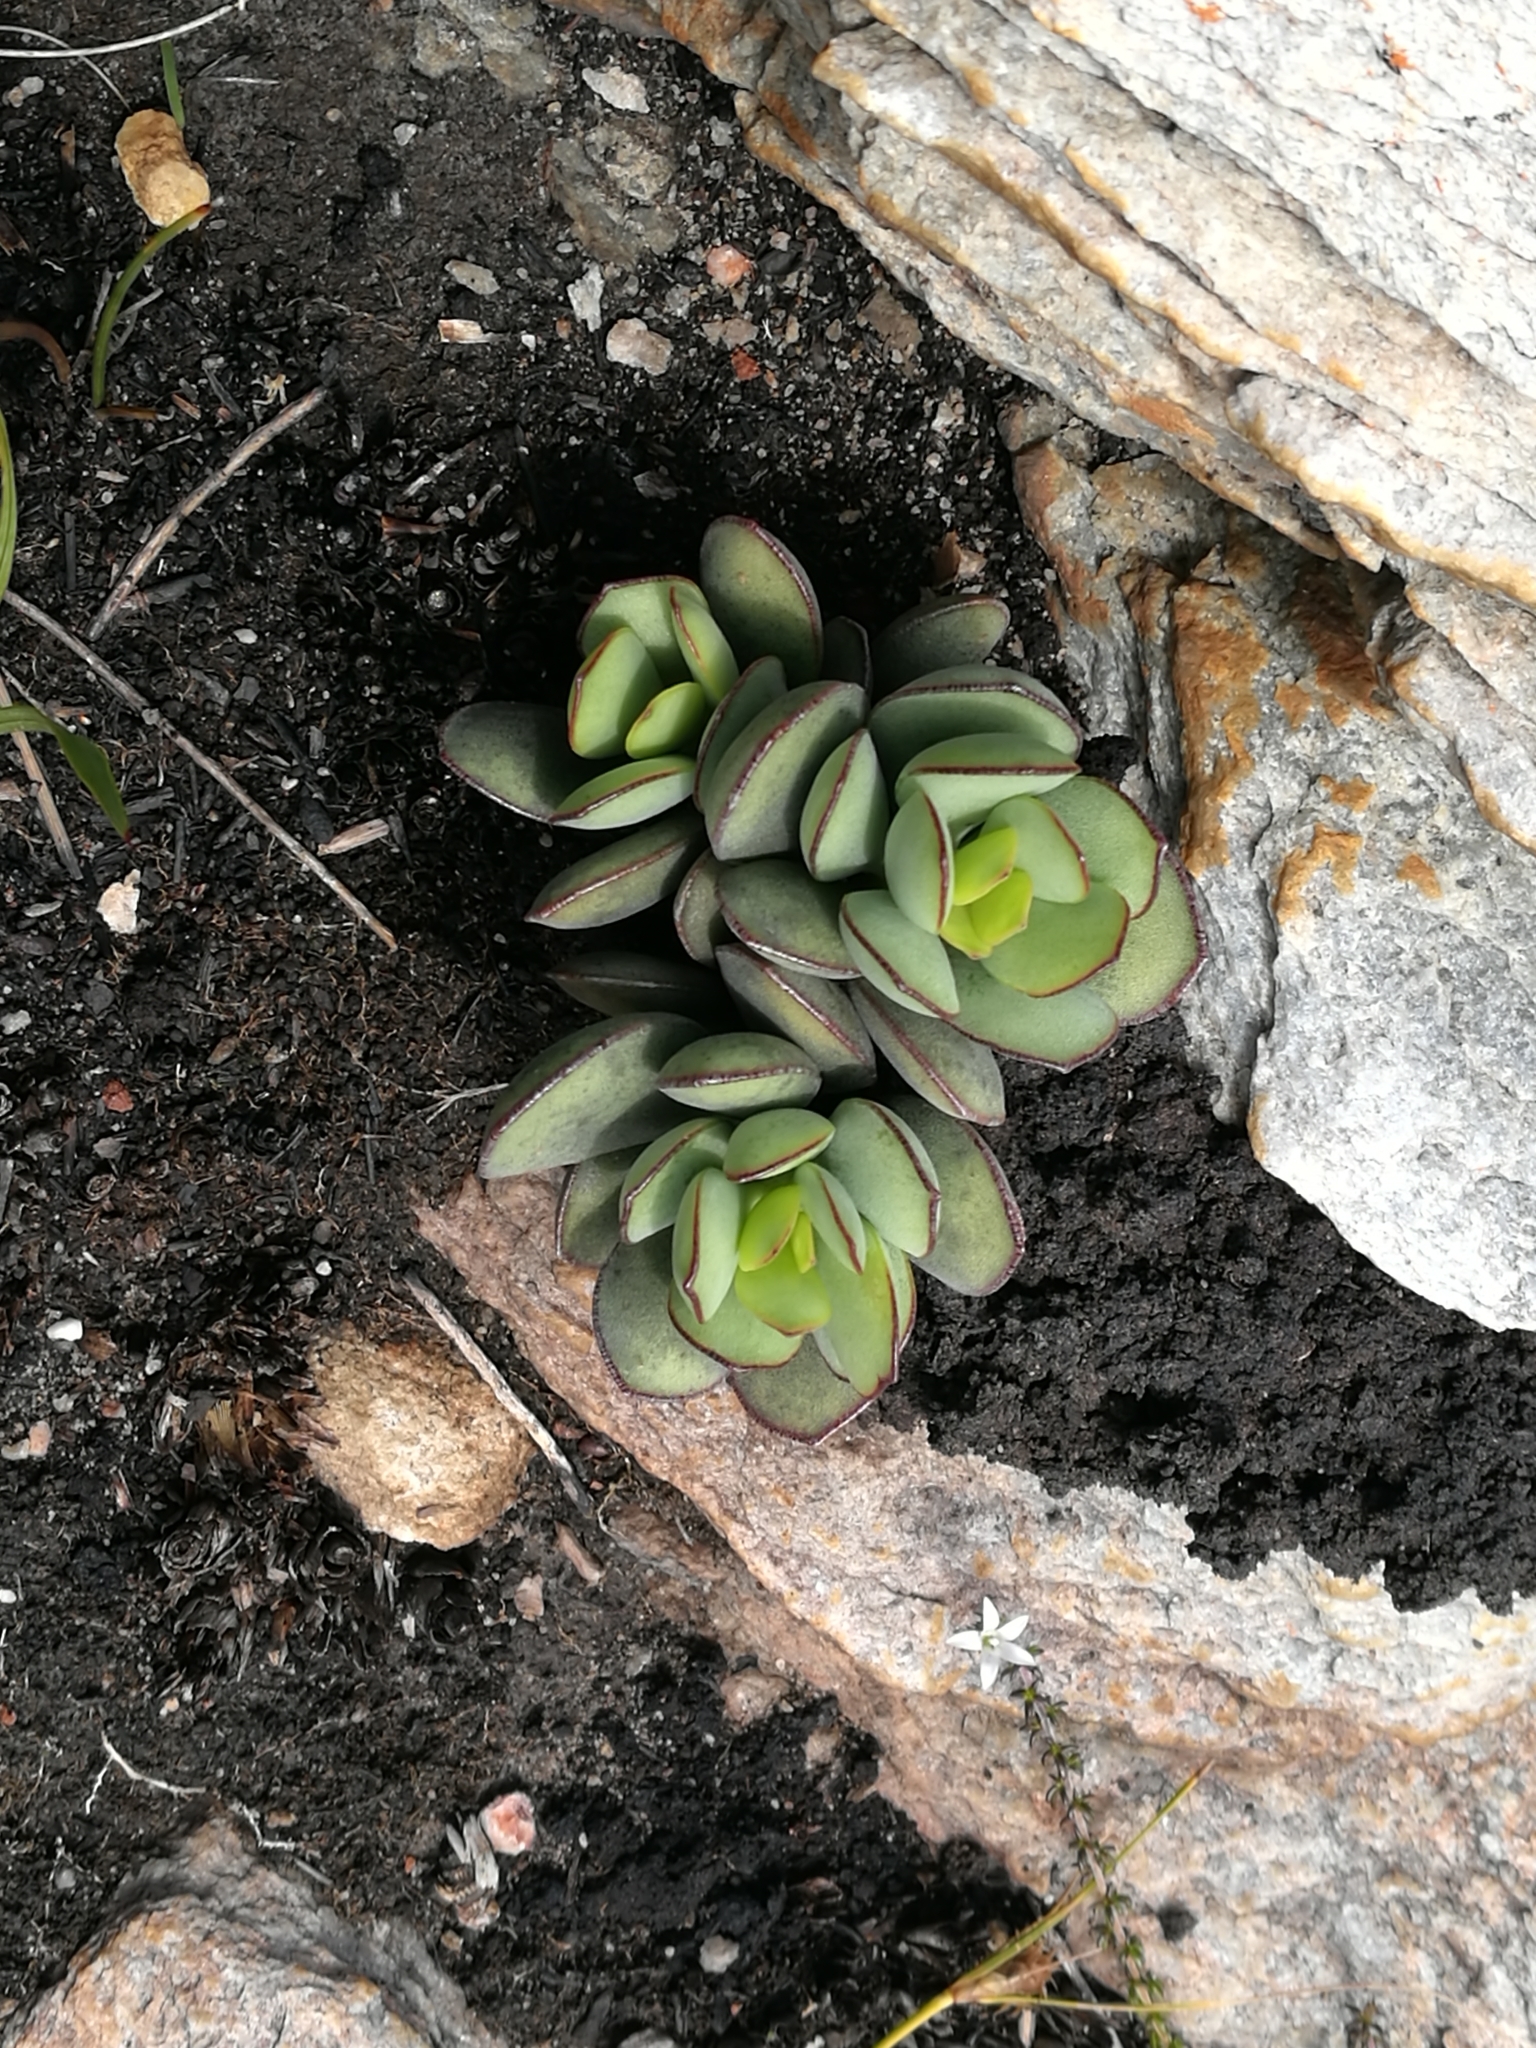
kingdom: Plantae
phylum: Tracheophyta
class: Magnoliopsida
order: Saxifragales
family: Crassulaceae
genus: Adromischus
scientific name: Adromischus sphenophyllus
